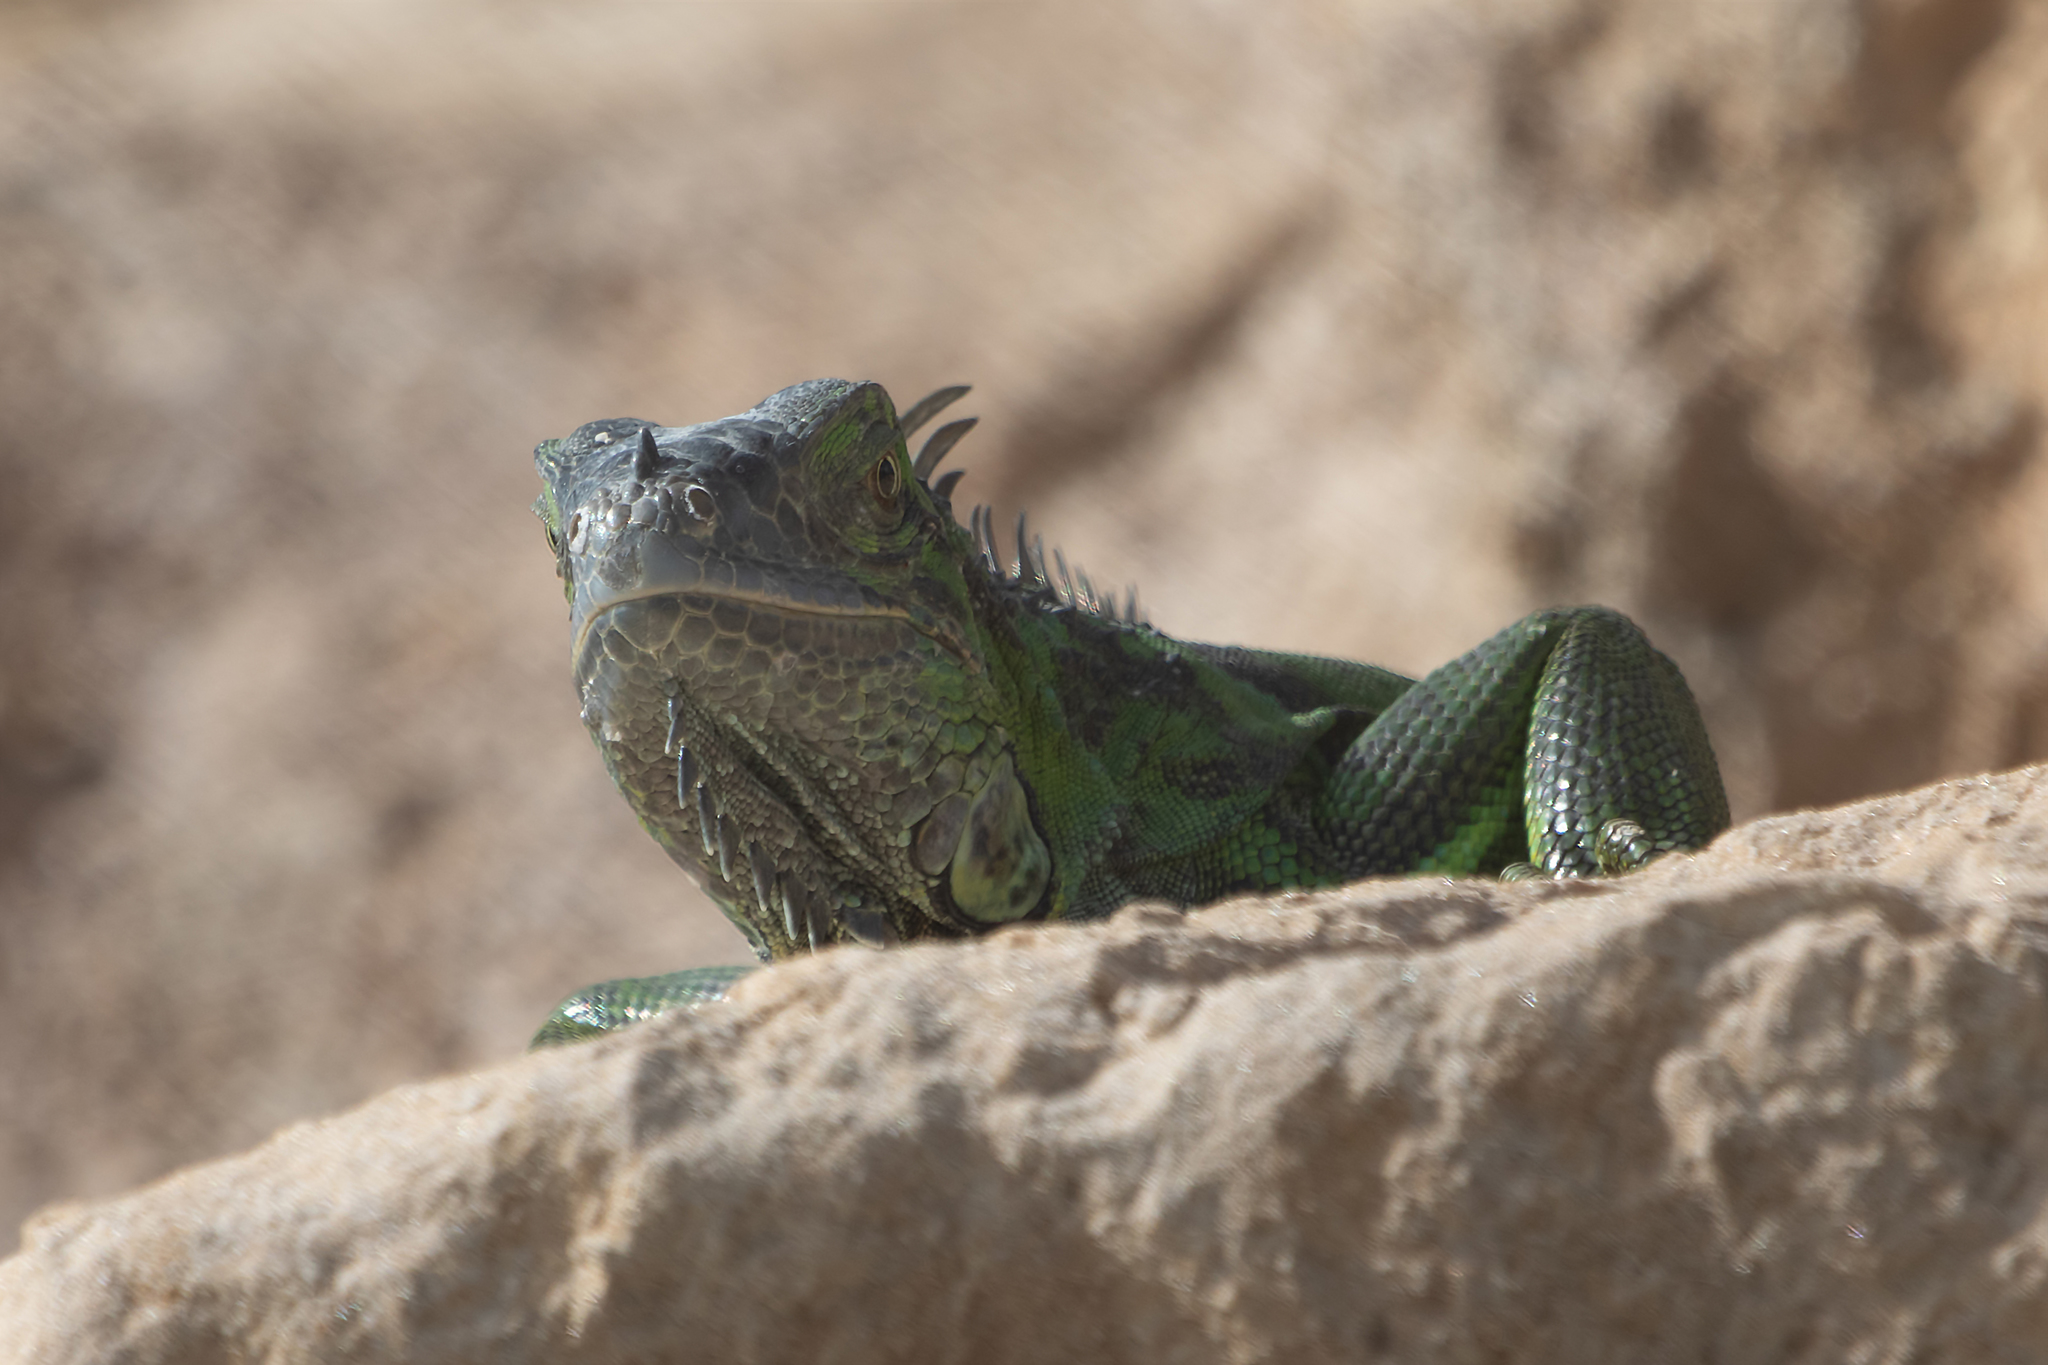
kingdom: Animalia
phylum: Chordata
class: Squamata
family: Iguanidae
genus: Iguana
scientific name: Iguana iguana
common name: Green iguana
